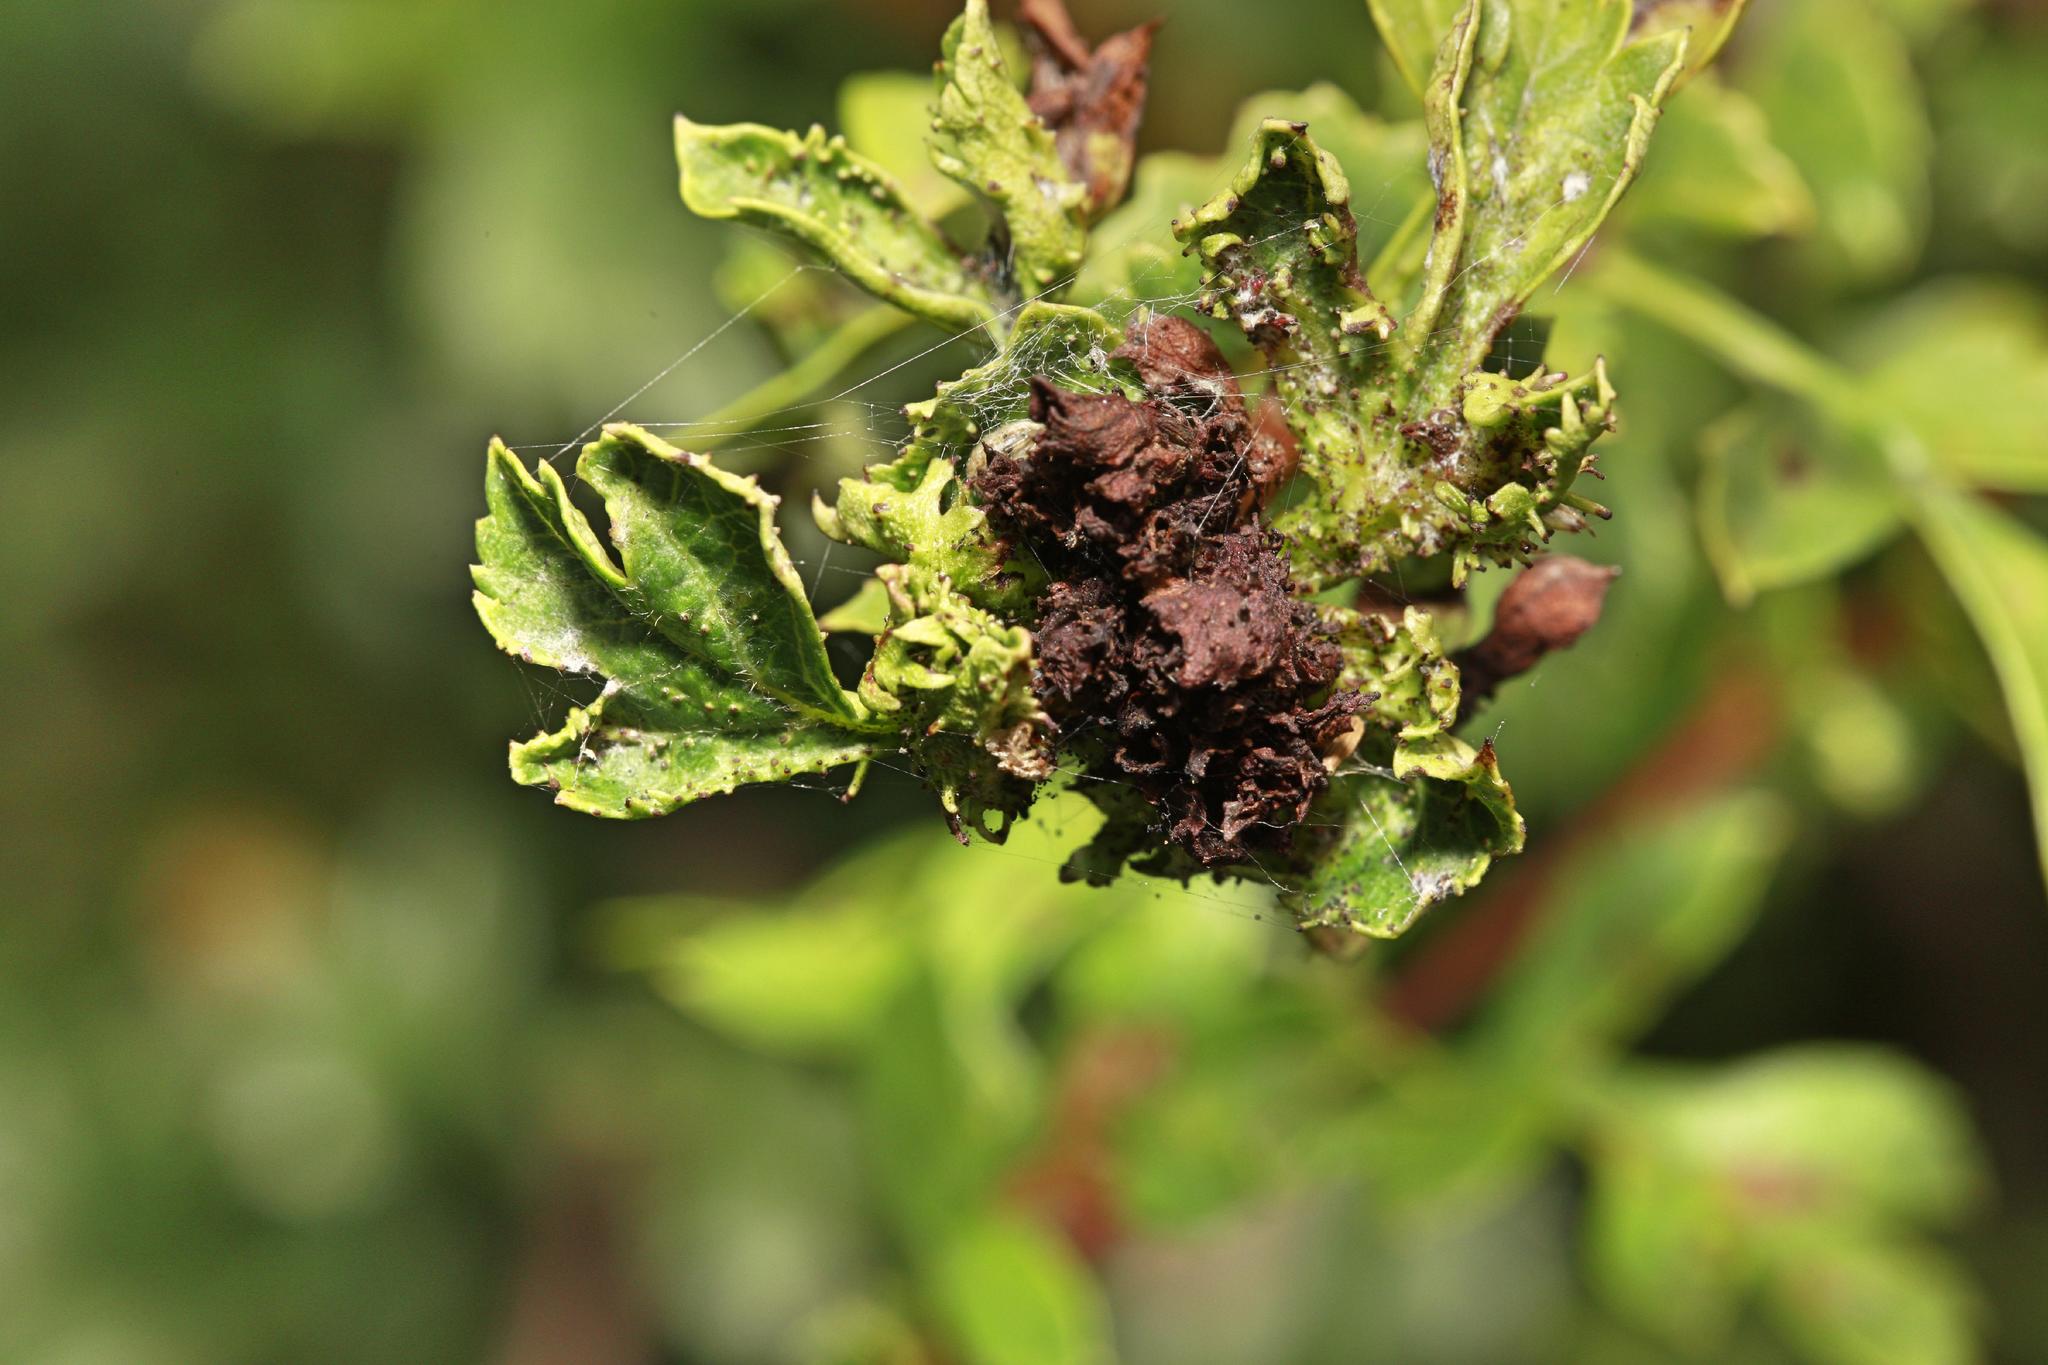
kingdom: Animalia
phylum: Arthropoda
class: Insecta
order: Diptera
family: Cecidomyiidae
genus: Dasineura
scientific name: Dasineura crataegi
